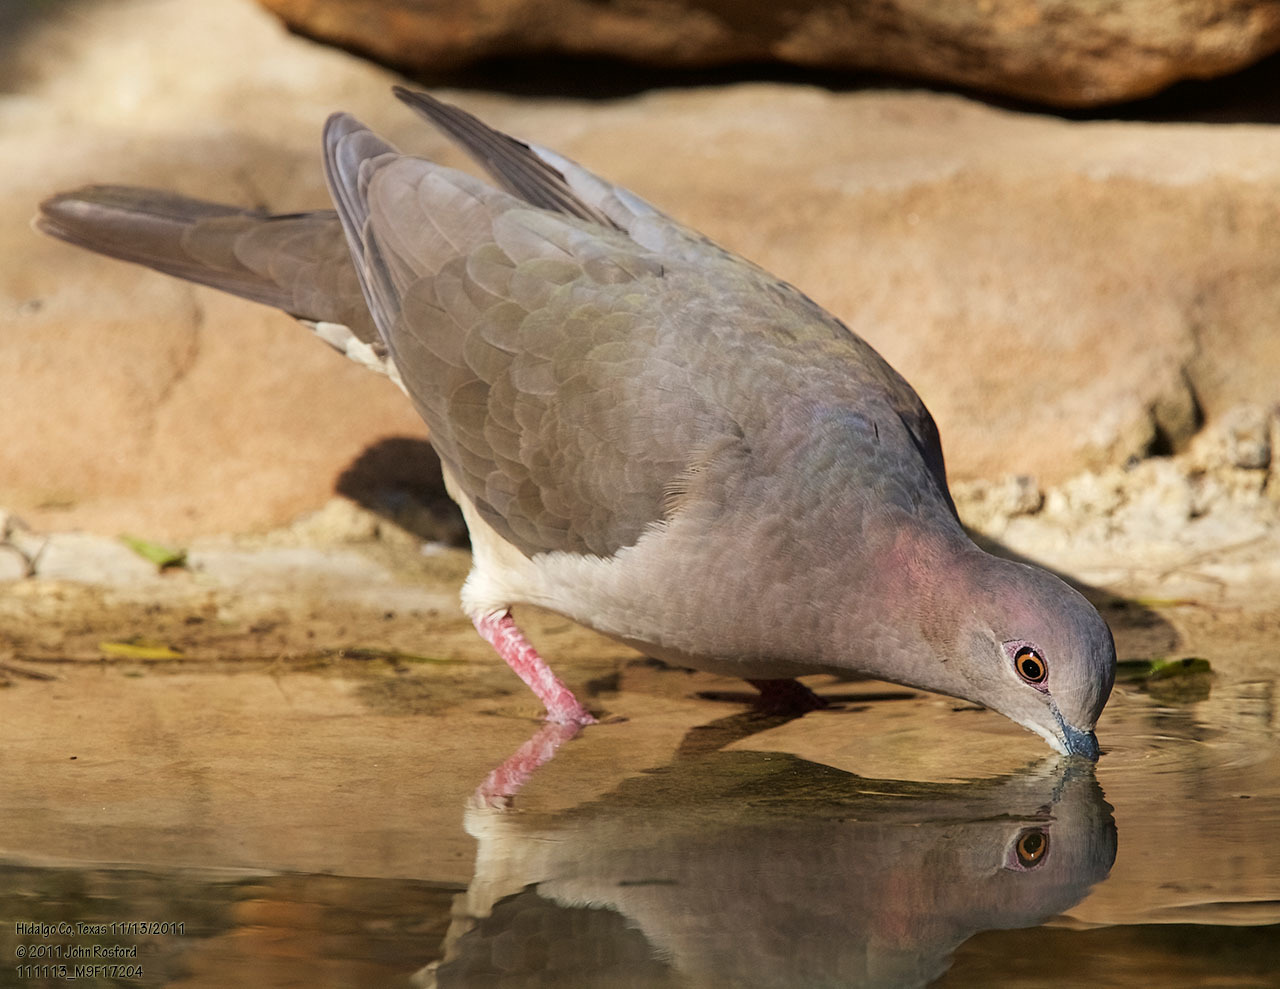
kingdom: Animalia
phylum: Chordata
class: Aves
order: Columbiformes
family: Columbidae
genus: Leptotila
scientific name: Leptotila verreauxi
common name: White-tipped dove
